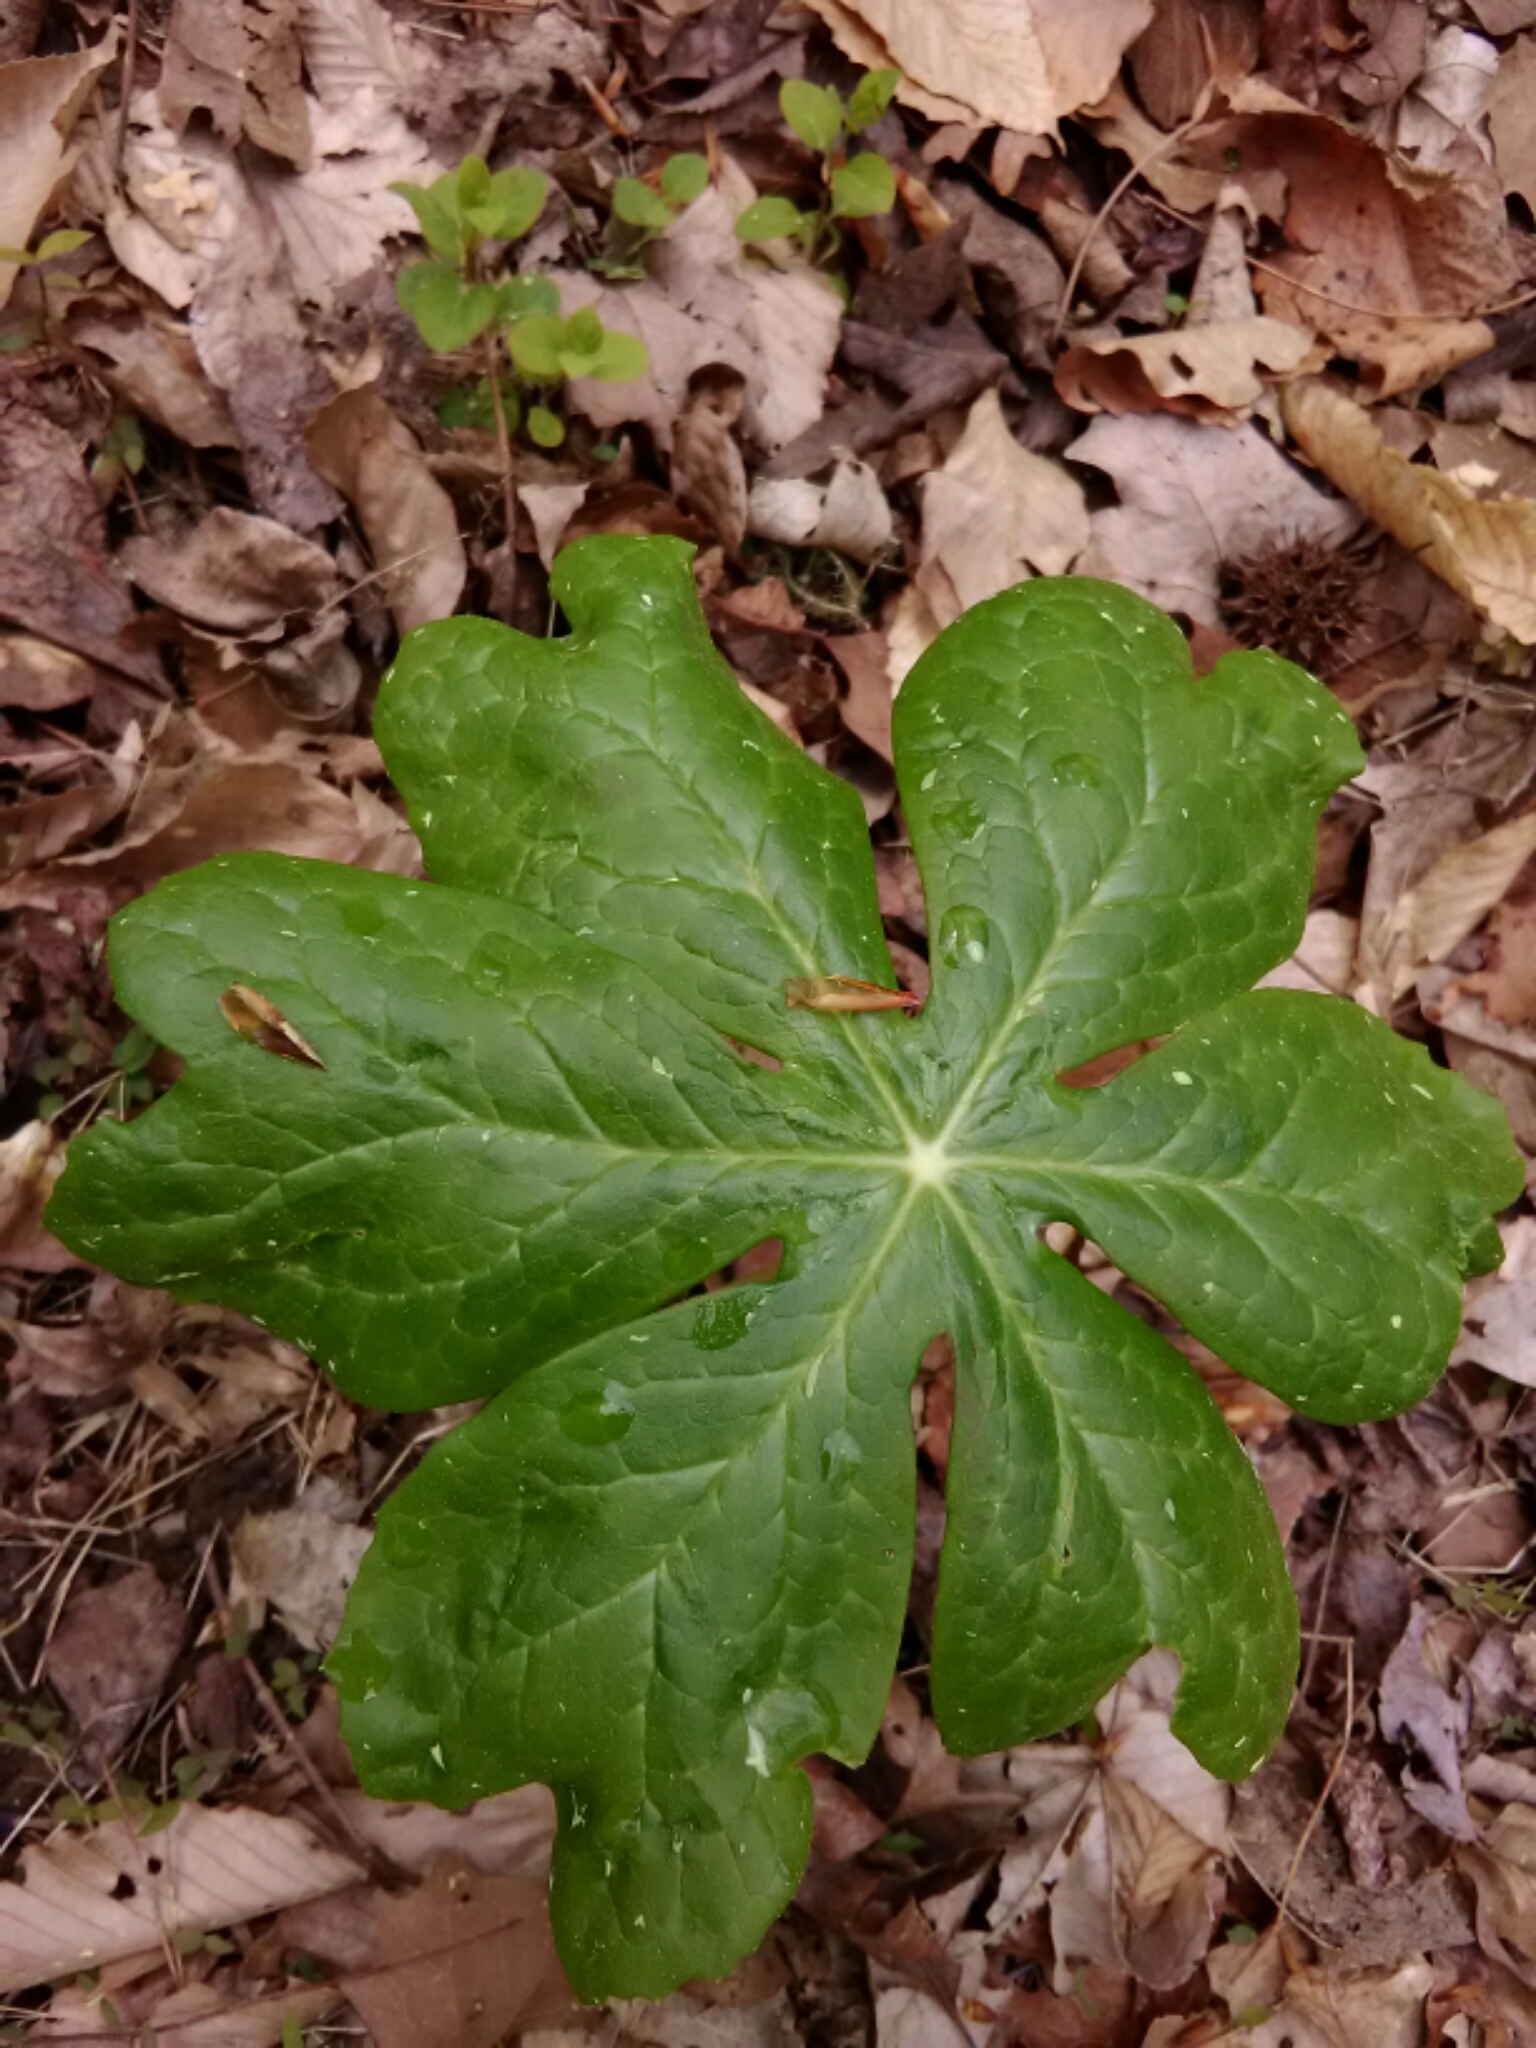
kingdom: Plantae
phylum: Tracheophyta
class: Magnoliopsida
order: Ranunculales
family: Berberidaceae
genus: Podophyllum
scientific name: Podophyllum peltatum
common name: Wild mandrake
